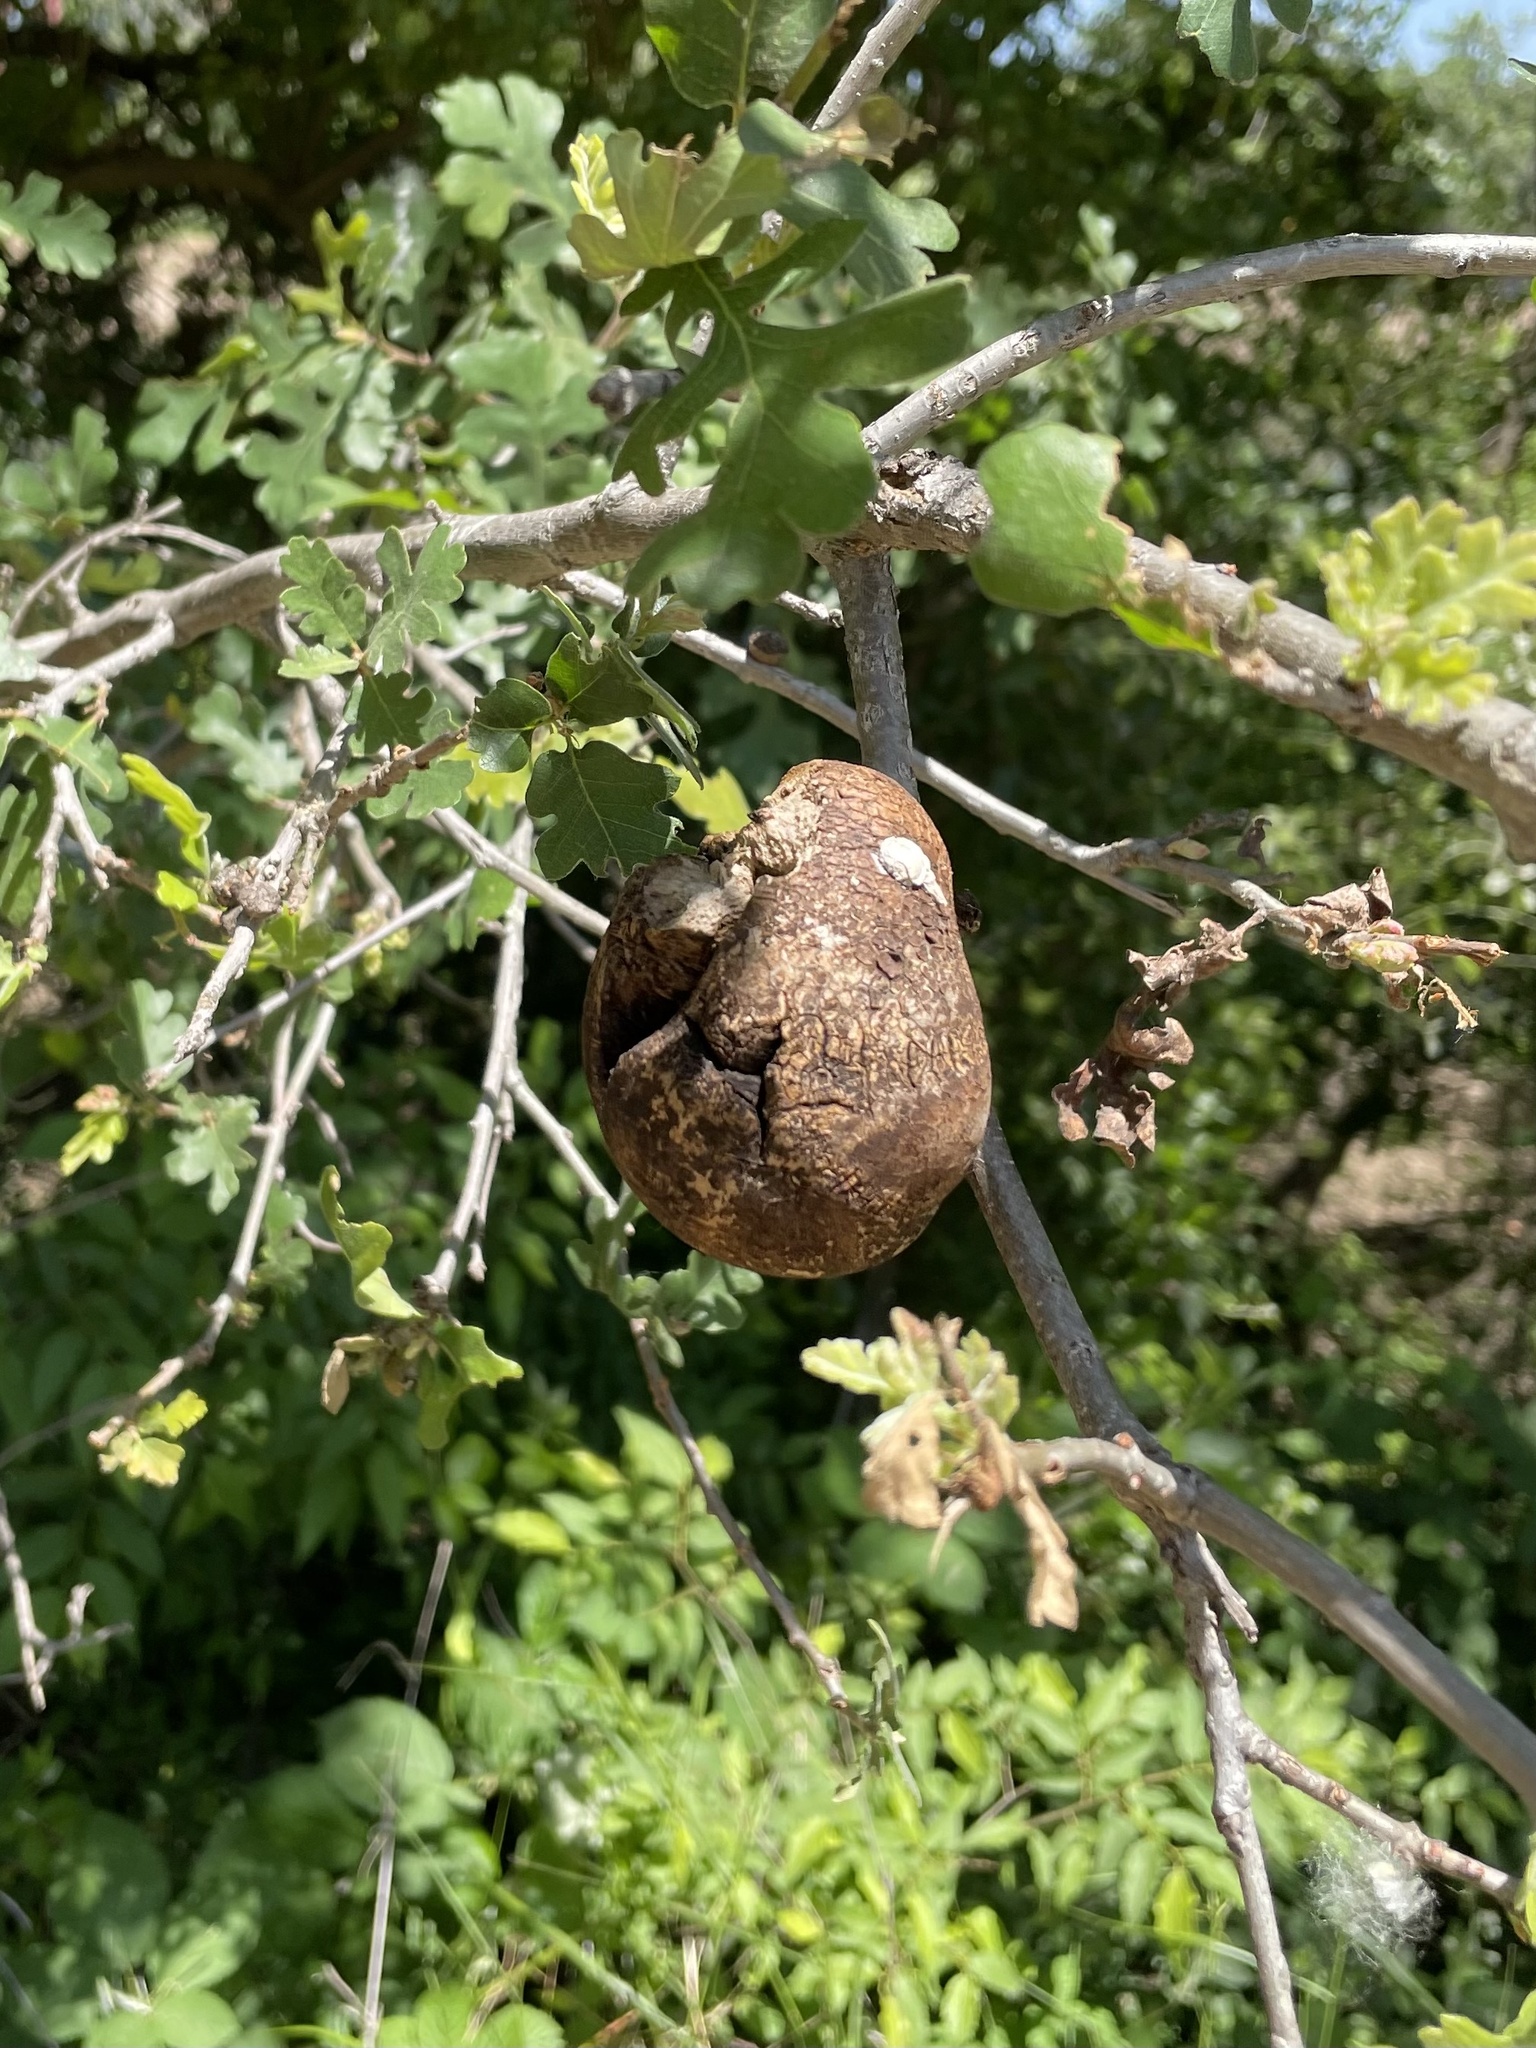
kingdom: Animalia
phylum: Arthropoda
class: Insecta
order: Hymenoptera
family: Cynipidae
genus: Andricus
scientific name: Andricus quercuscalifornicus
